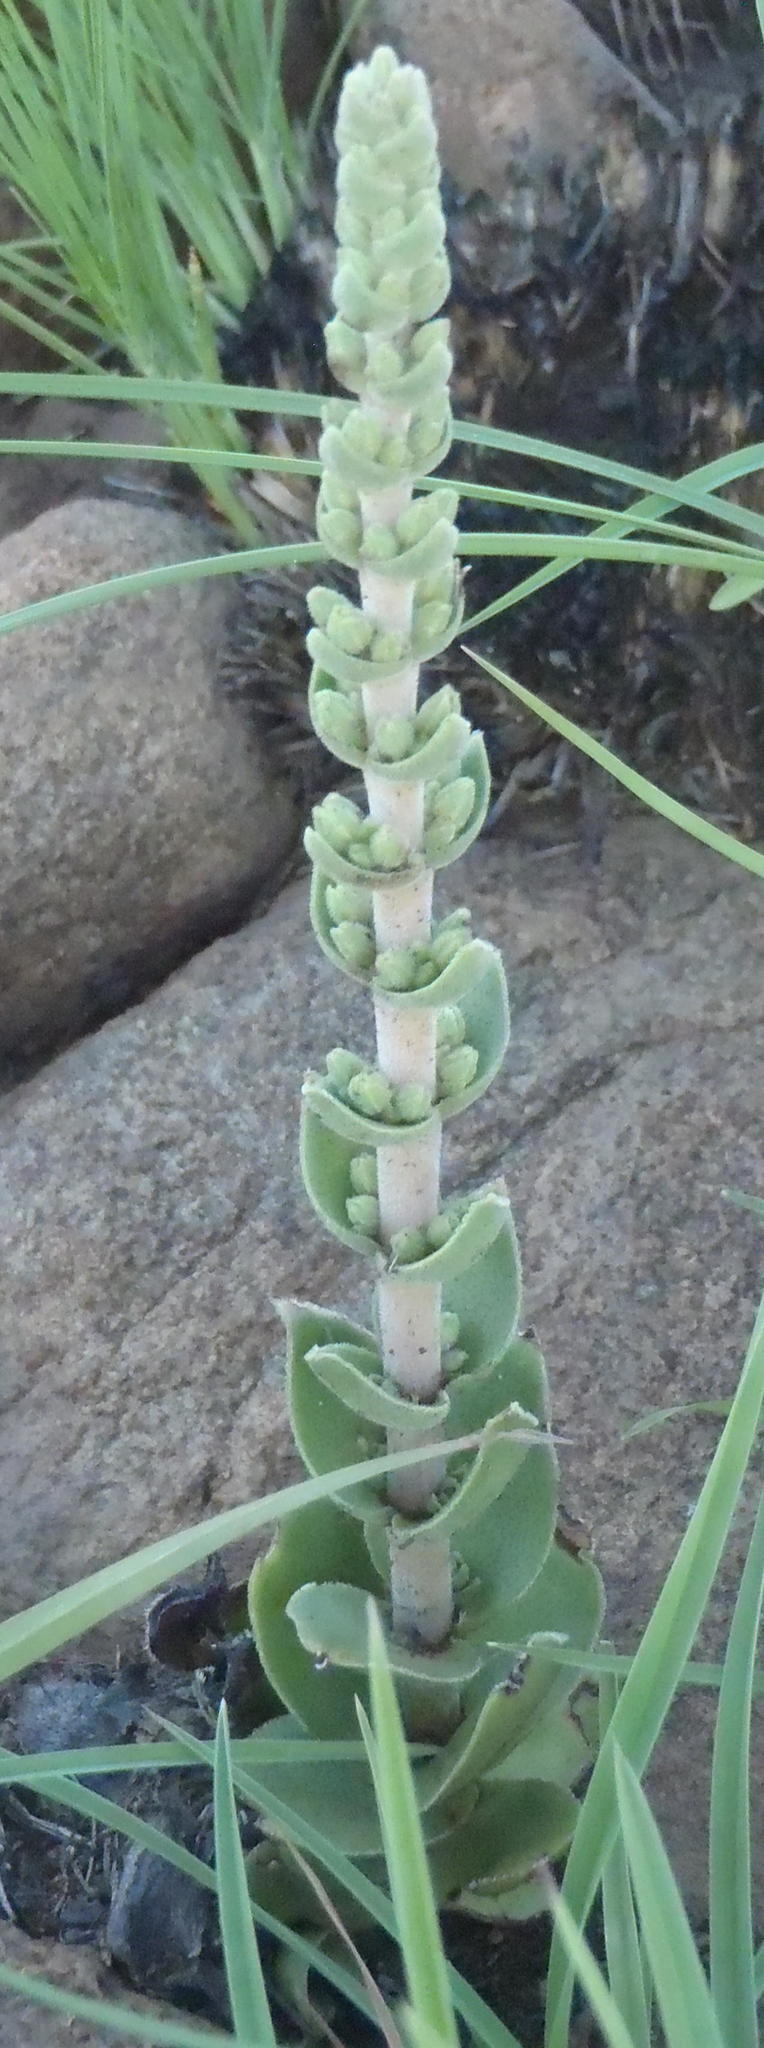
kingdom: Plantae
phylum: Tracheophyta
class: Magnoliopsida
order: Saxifragales
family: Crassulaceae
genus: Crassula
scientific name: Crassula nodulosa
